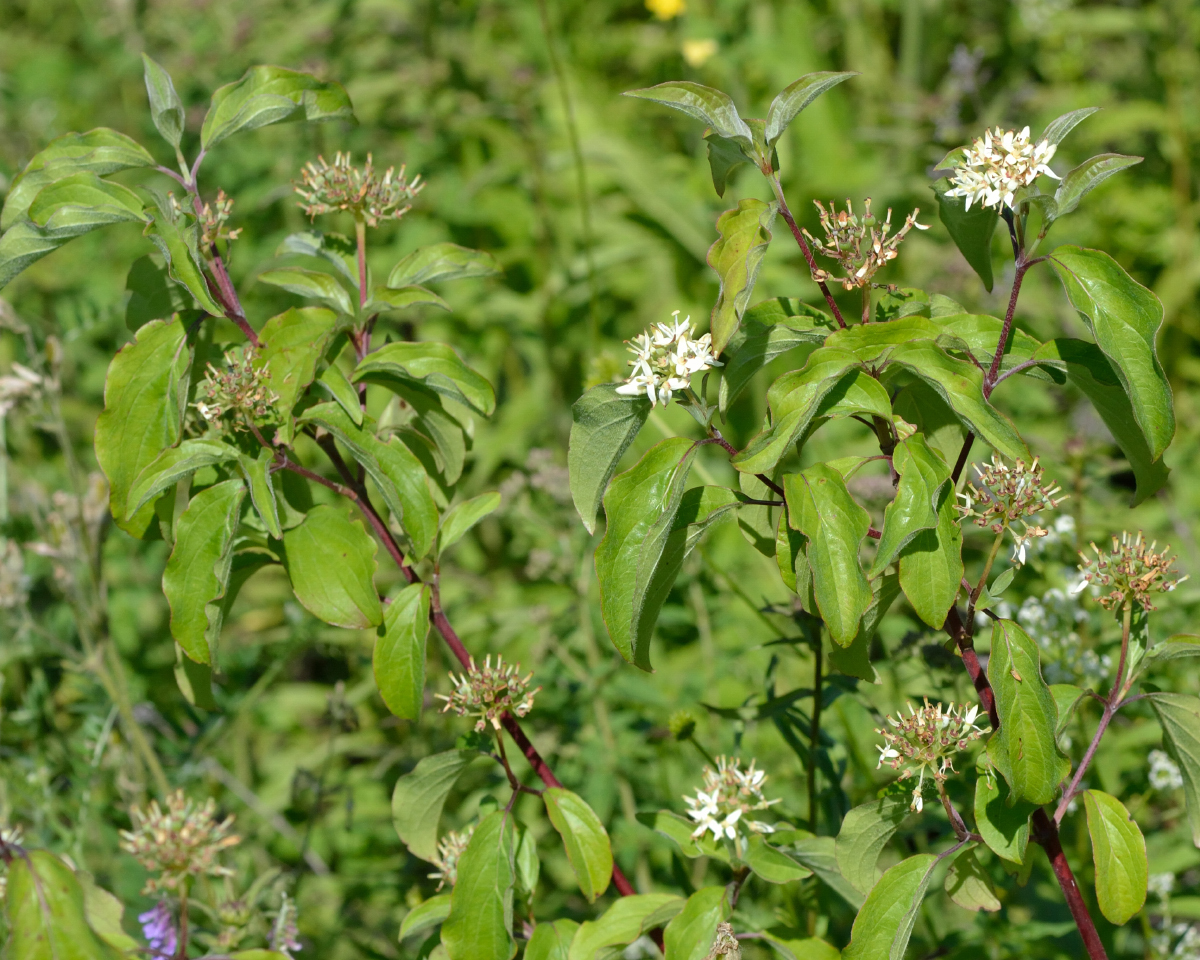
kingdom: Plantae
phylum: Tracheophyta
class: Magnoliopsida
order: Cornales
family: Cornaceae
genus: Cornus
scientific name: Cornus sanguinea
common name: Dogwood
